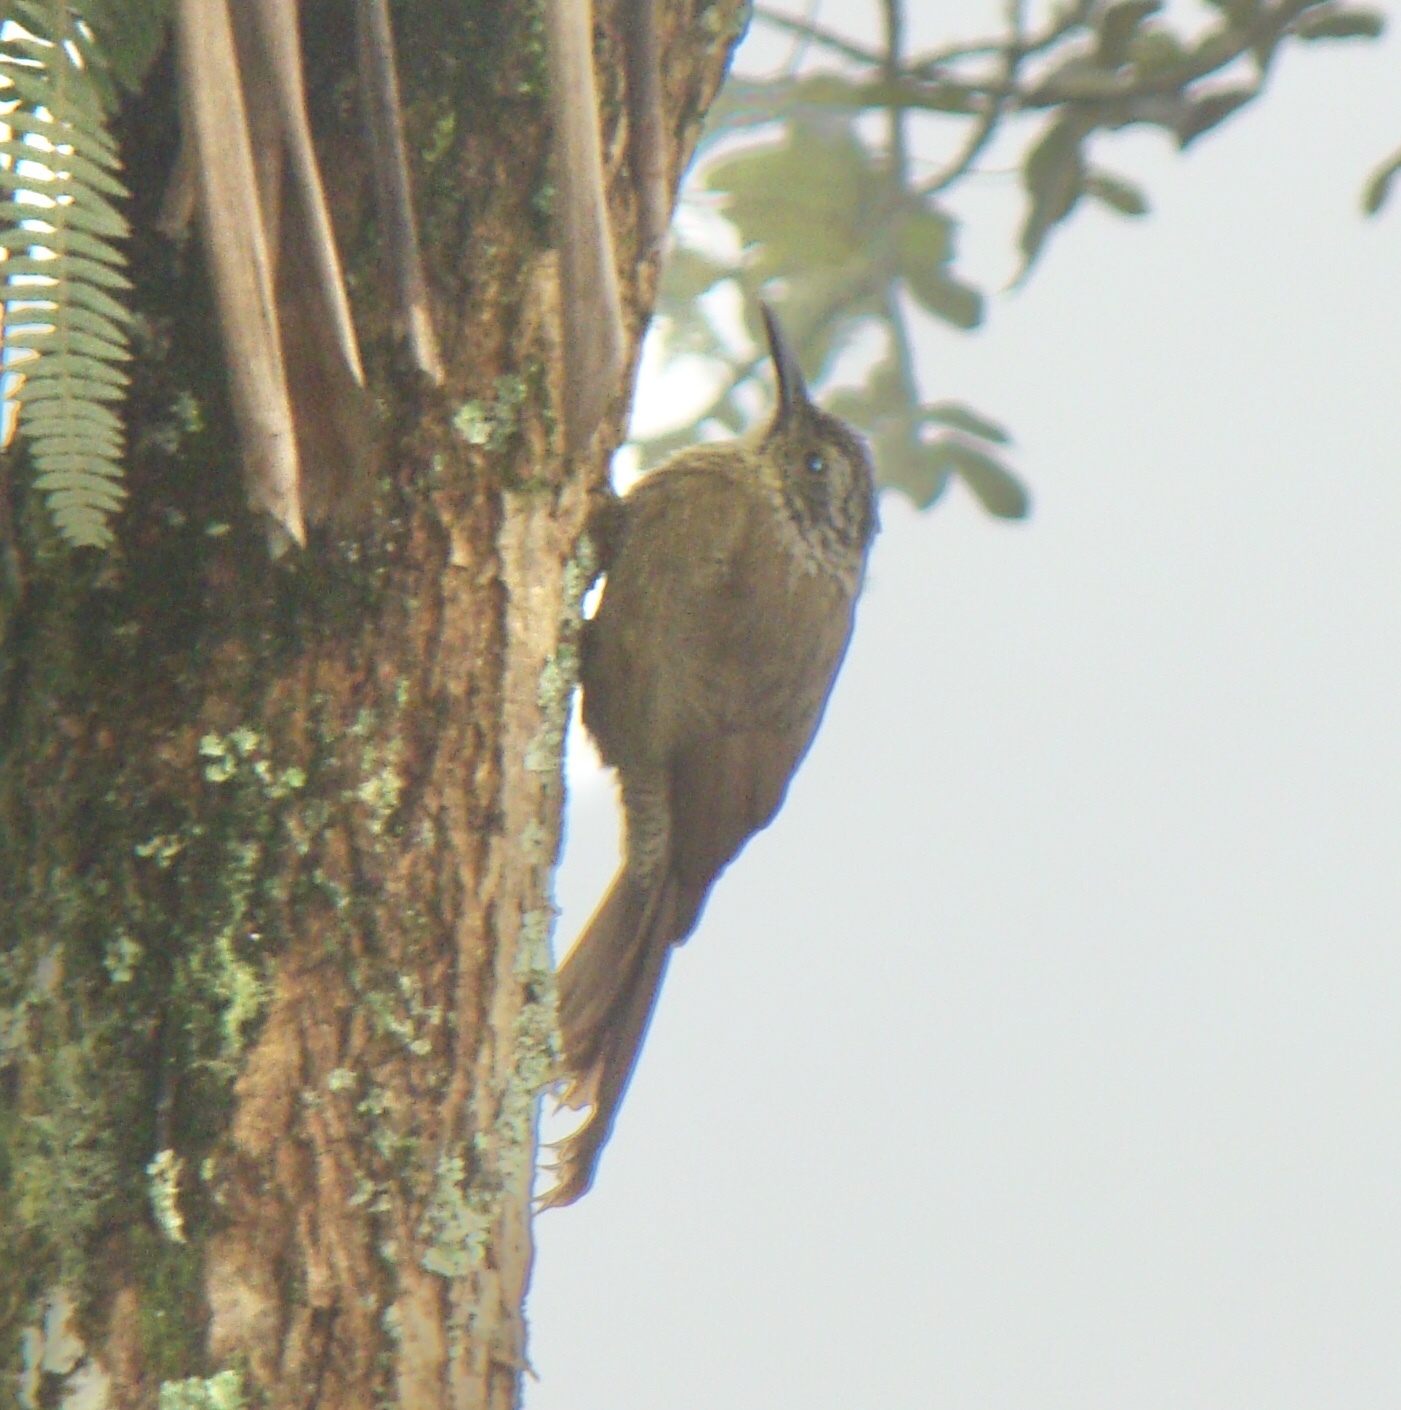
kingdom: Animalia
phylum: Chordata
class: Aves
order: Passeriformes
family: Furnariidae
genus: Dendrocolaptes
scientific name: Dendrocolaptes platyrostris
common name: Planalto woodcreeper
